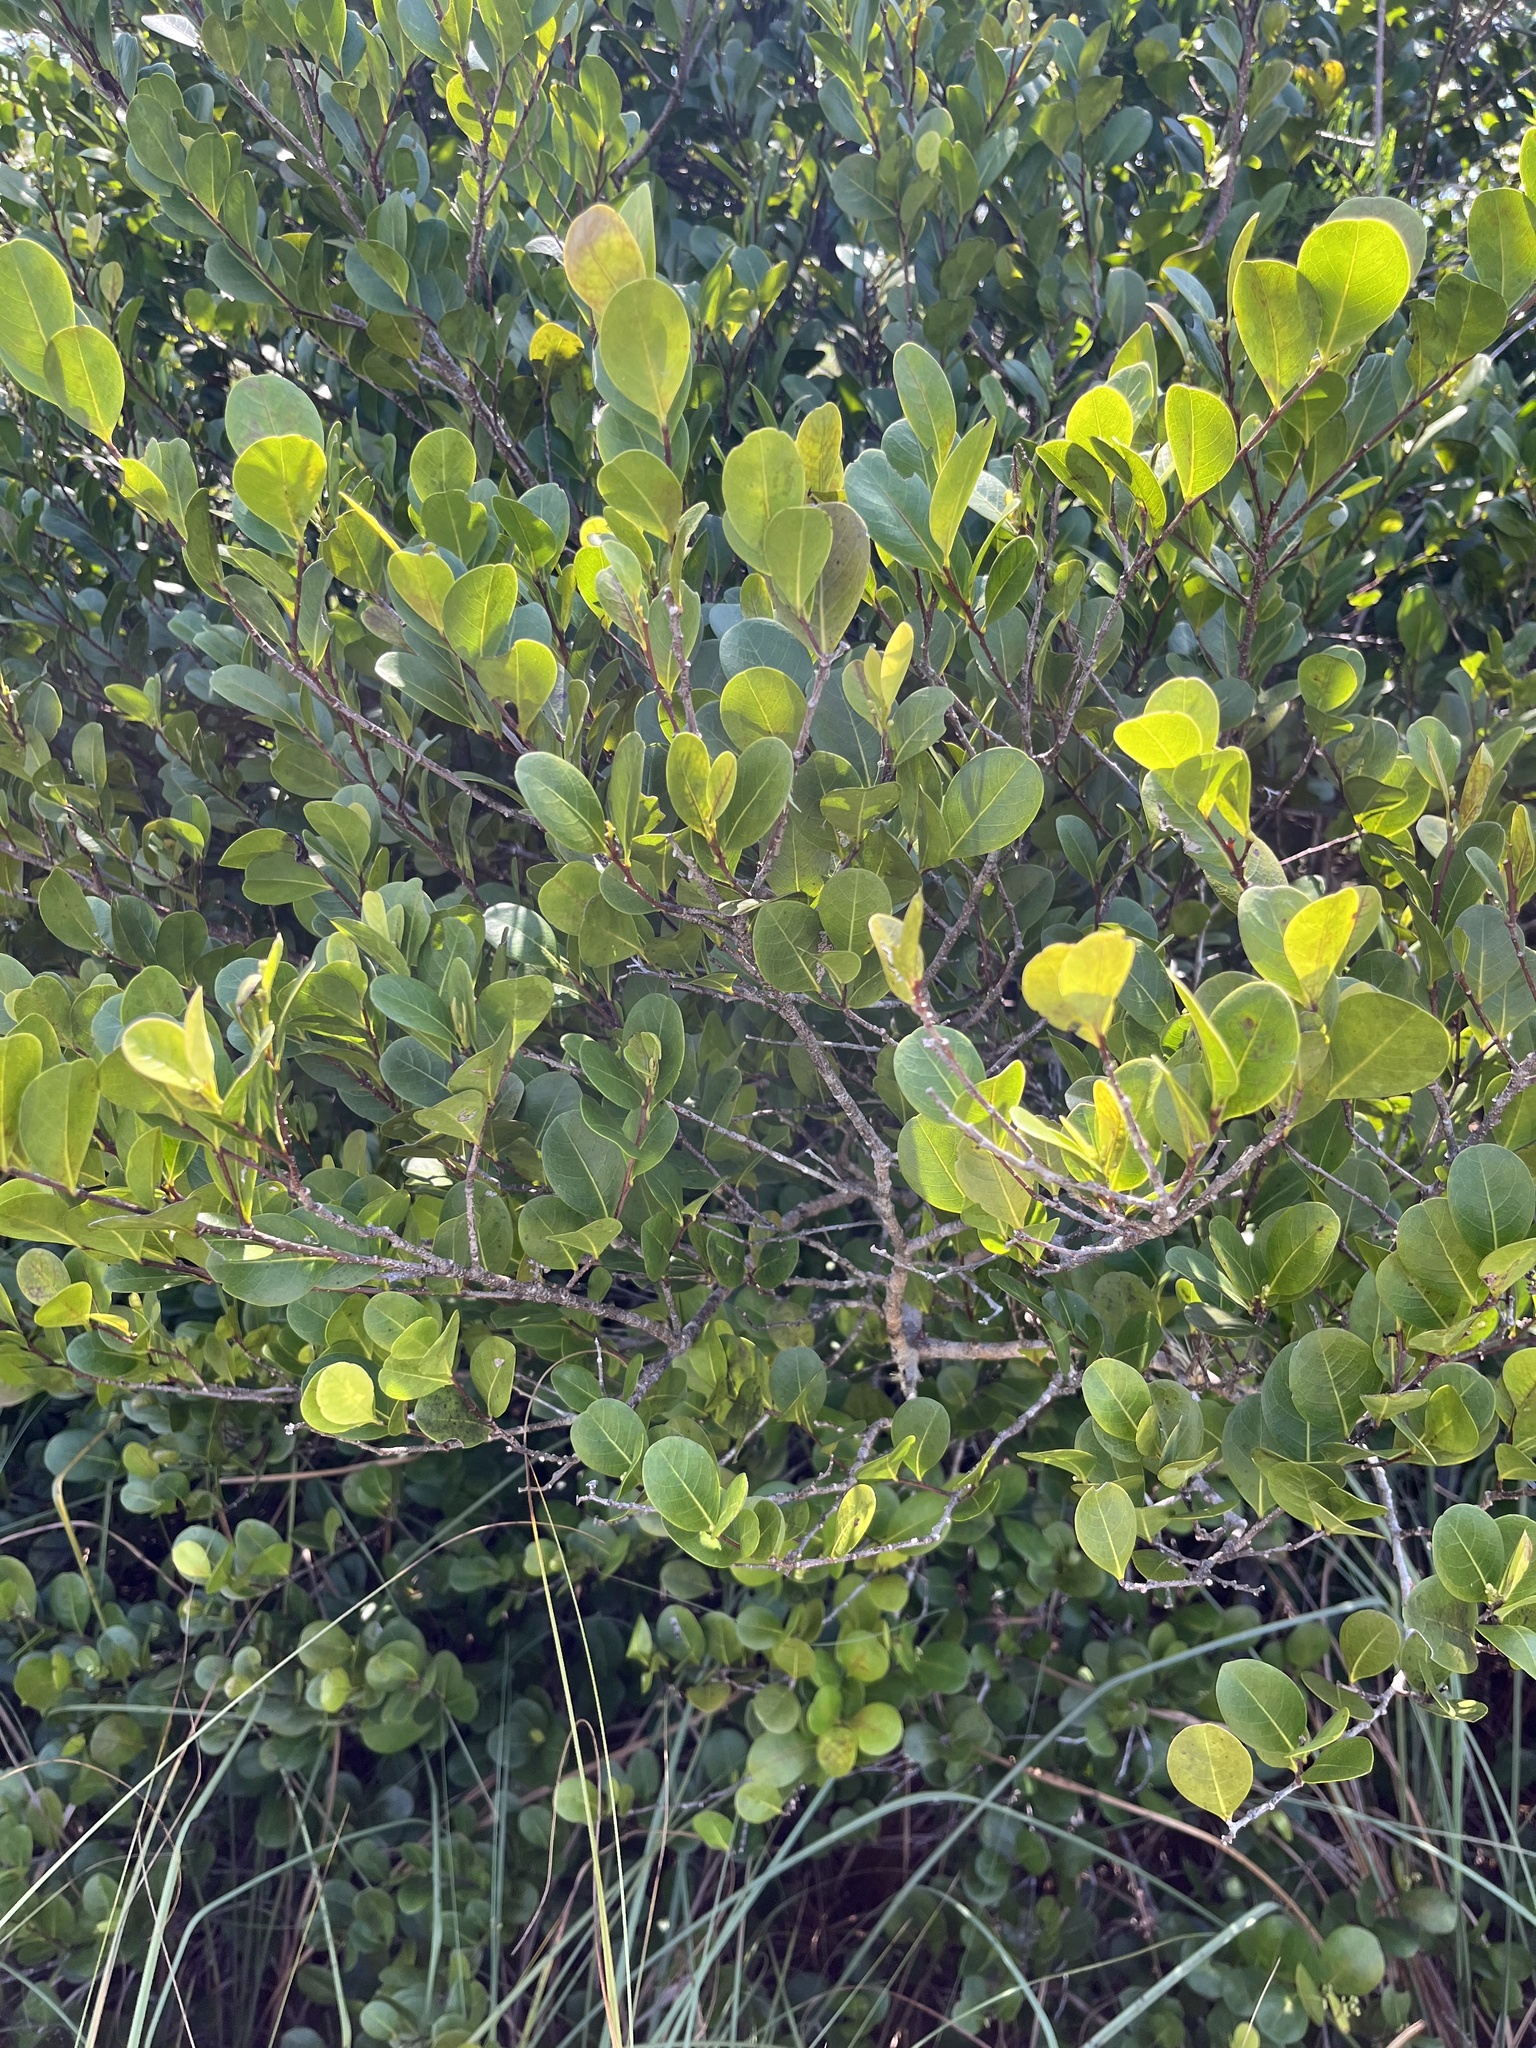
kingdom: Plantae
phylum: Tracheophyta
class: Magnoliopsida
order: Malpighiales
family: Chrysobalanaceae
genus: Chrysobalanus
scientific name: Chrysobalanus icaco
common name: Coco plum
